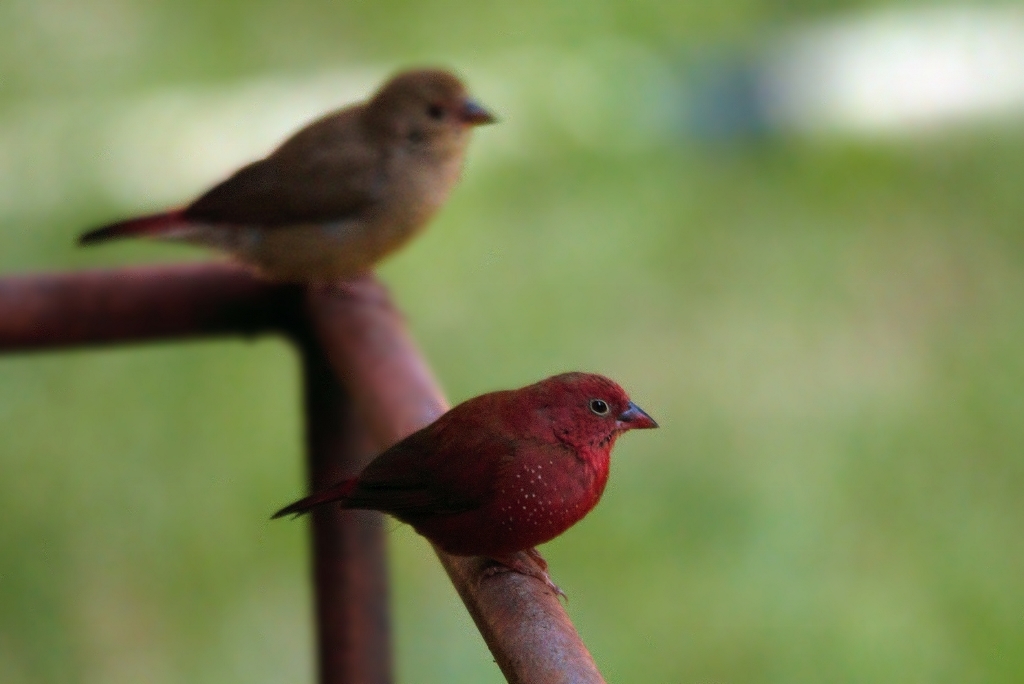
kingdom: Animalia
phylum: Chordata
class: Aves
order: Passeriformes
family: Estrildidae
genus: Lagonosticta
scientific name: Lagonosticta senegala
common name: Red-billed firefinch
